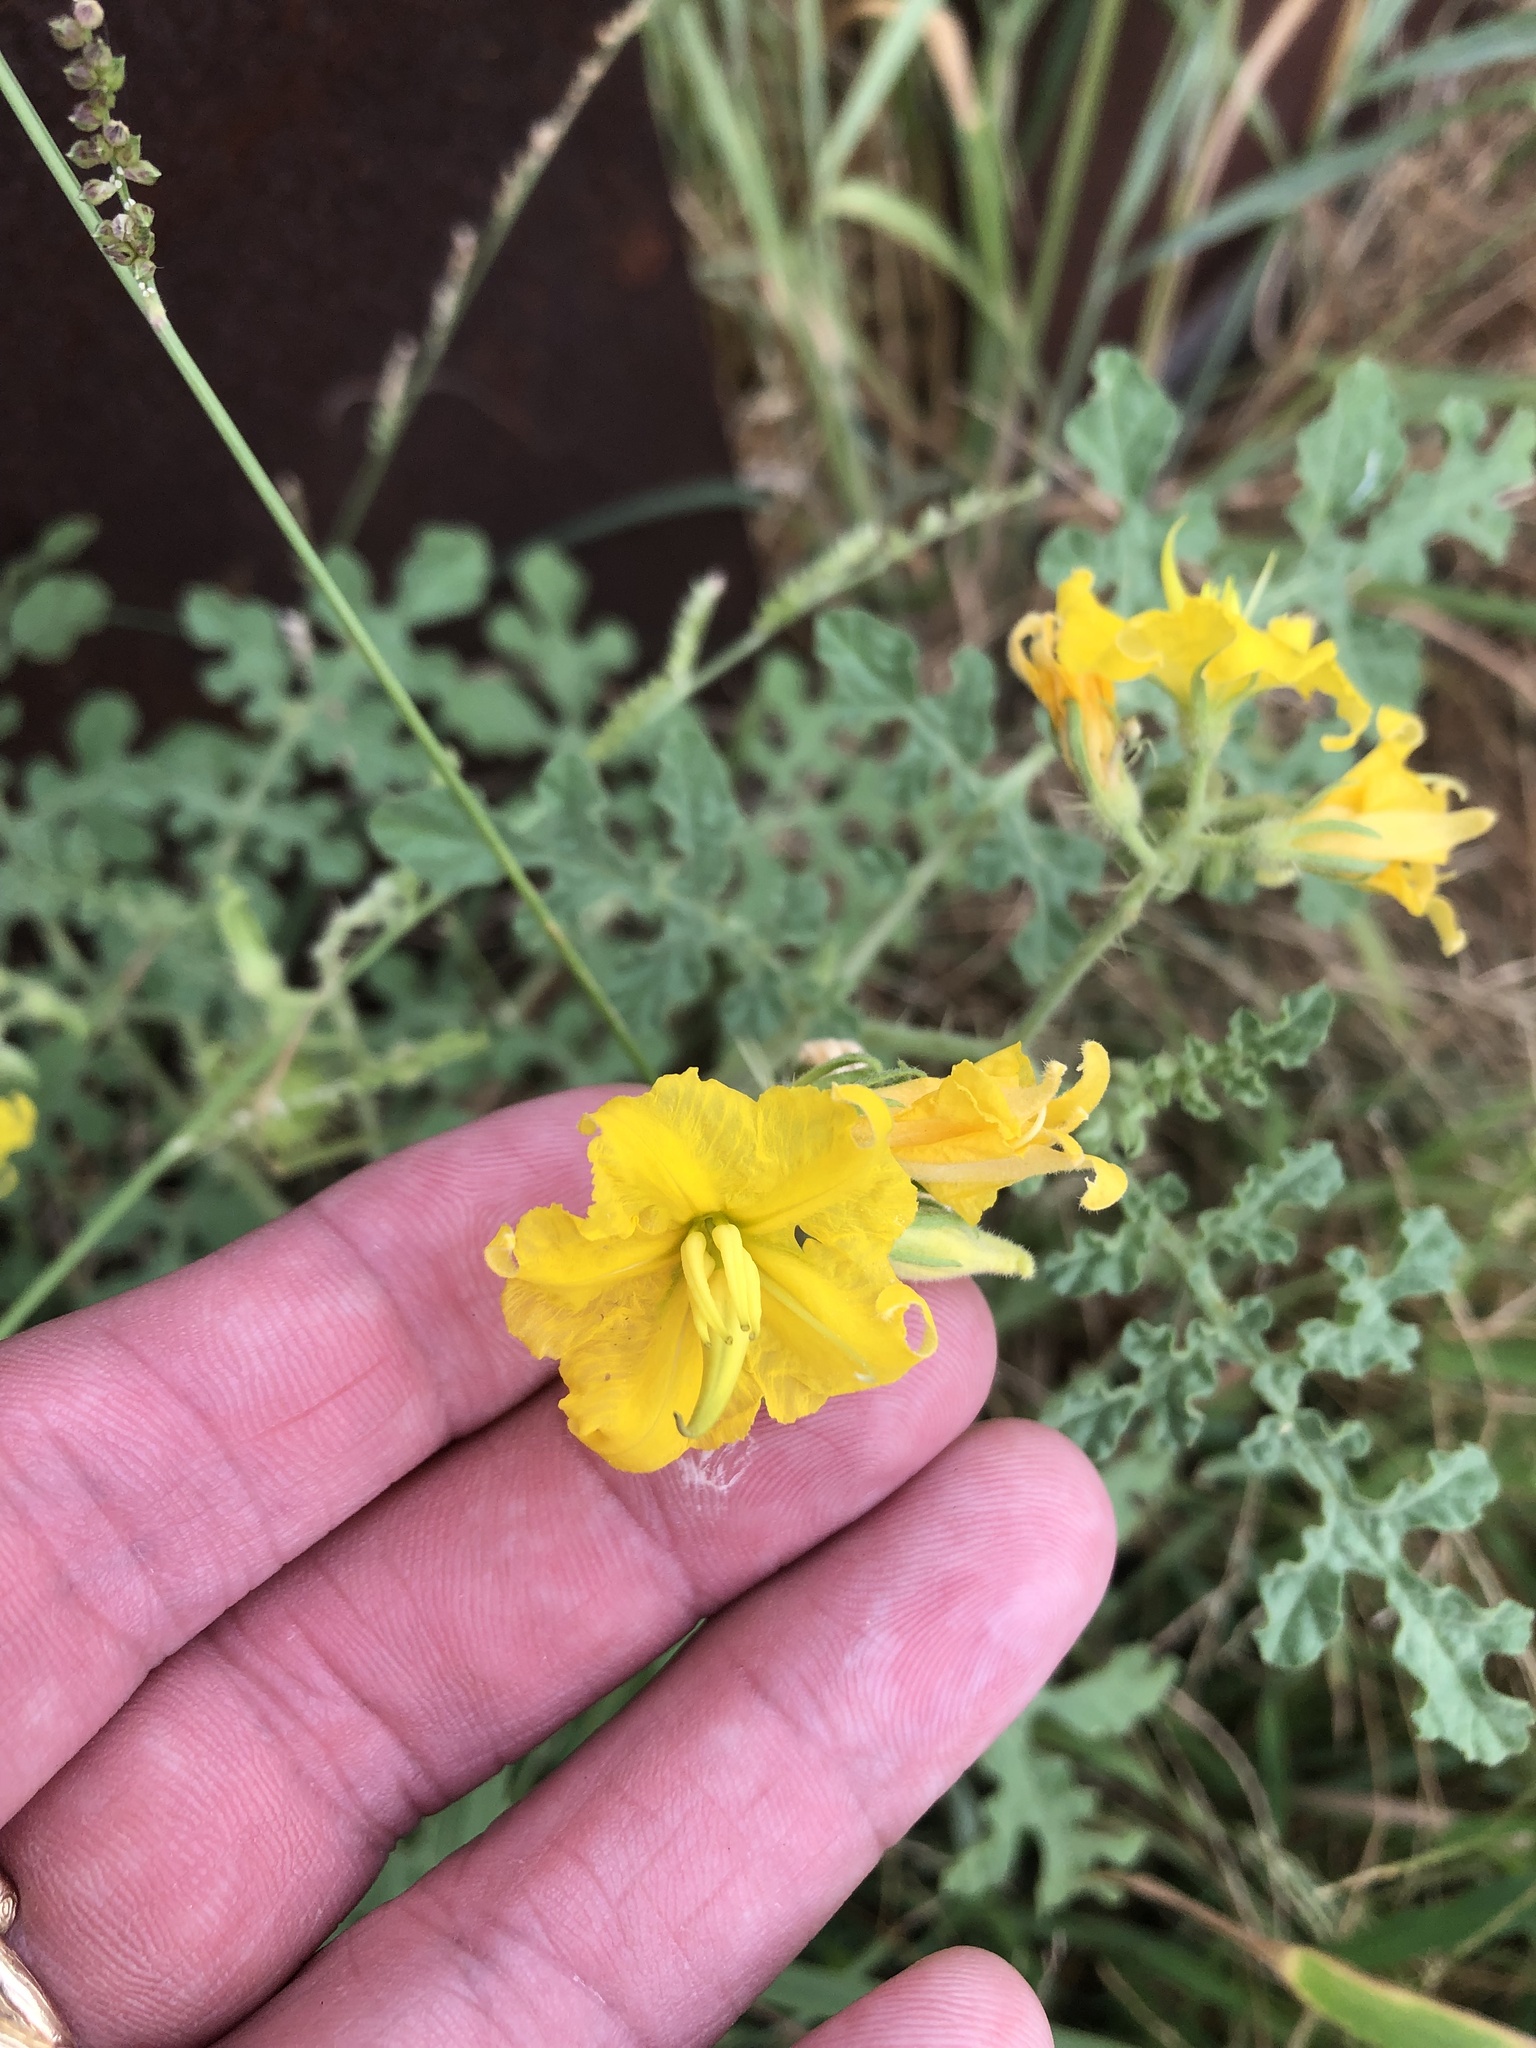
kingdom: Plantae
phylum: Tracheophyta
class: Magnoliopsida
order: Solanales
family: Solanaceae
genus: Solanum
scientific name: Solanum angustifolium
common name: Buffalobur nightshade
